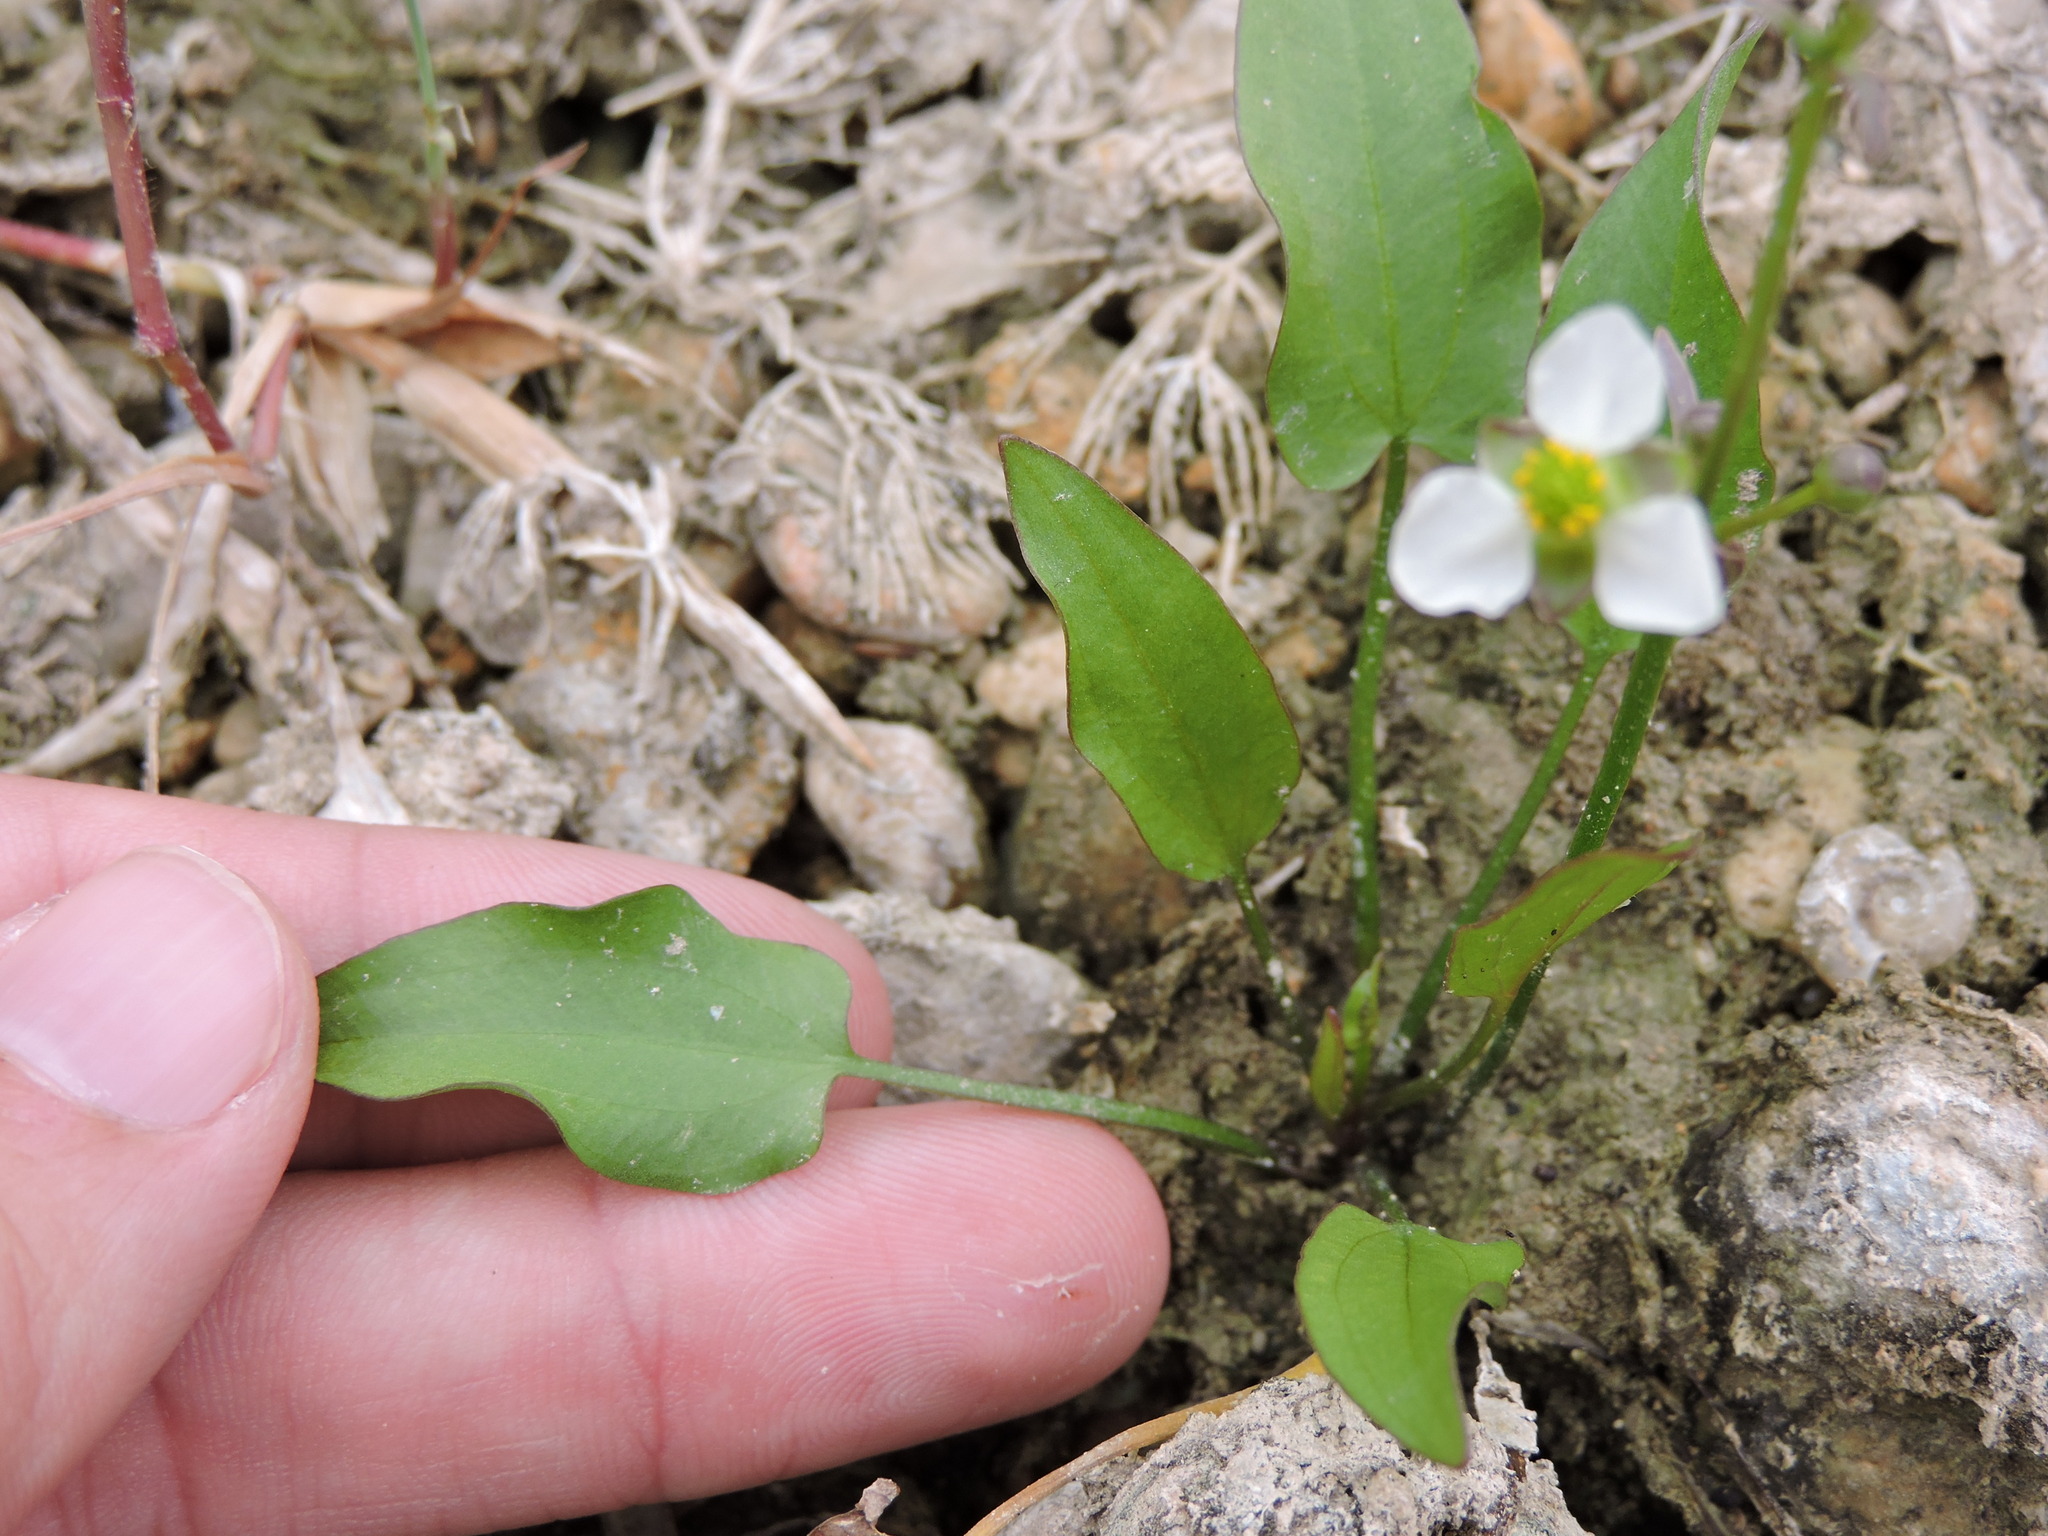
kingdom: Plantae
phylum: Tracheophyta
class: Liliopsida
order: Alismatales
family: Alismataceae
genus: Echinodorus
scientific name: Echinodorus berteroi
